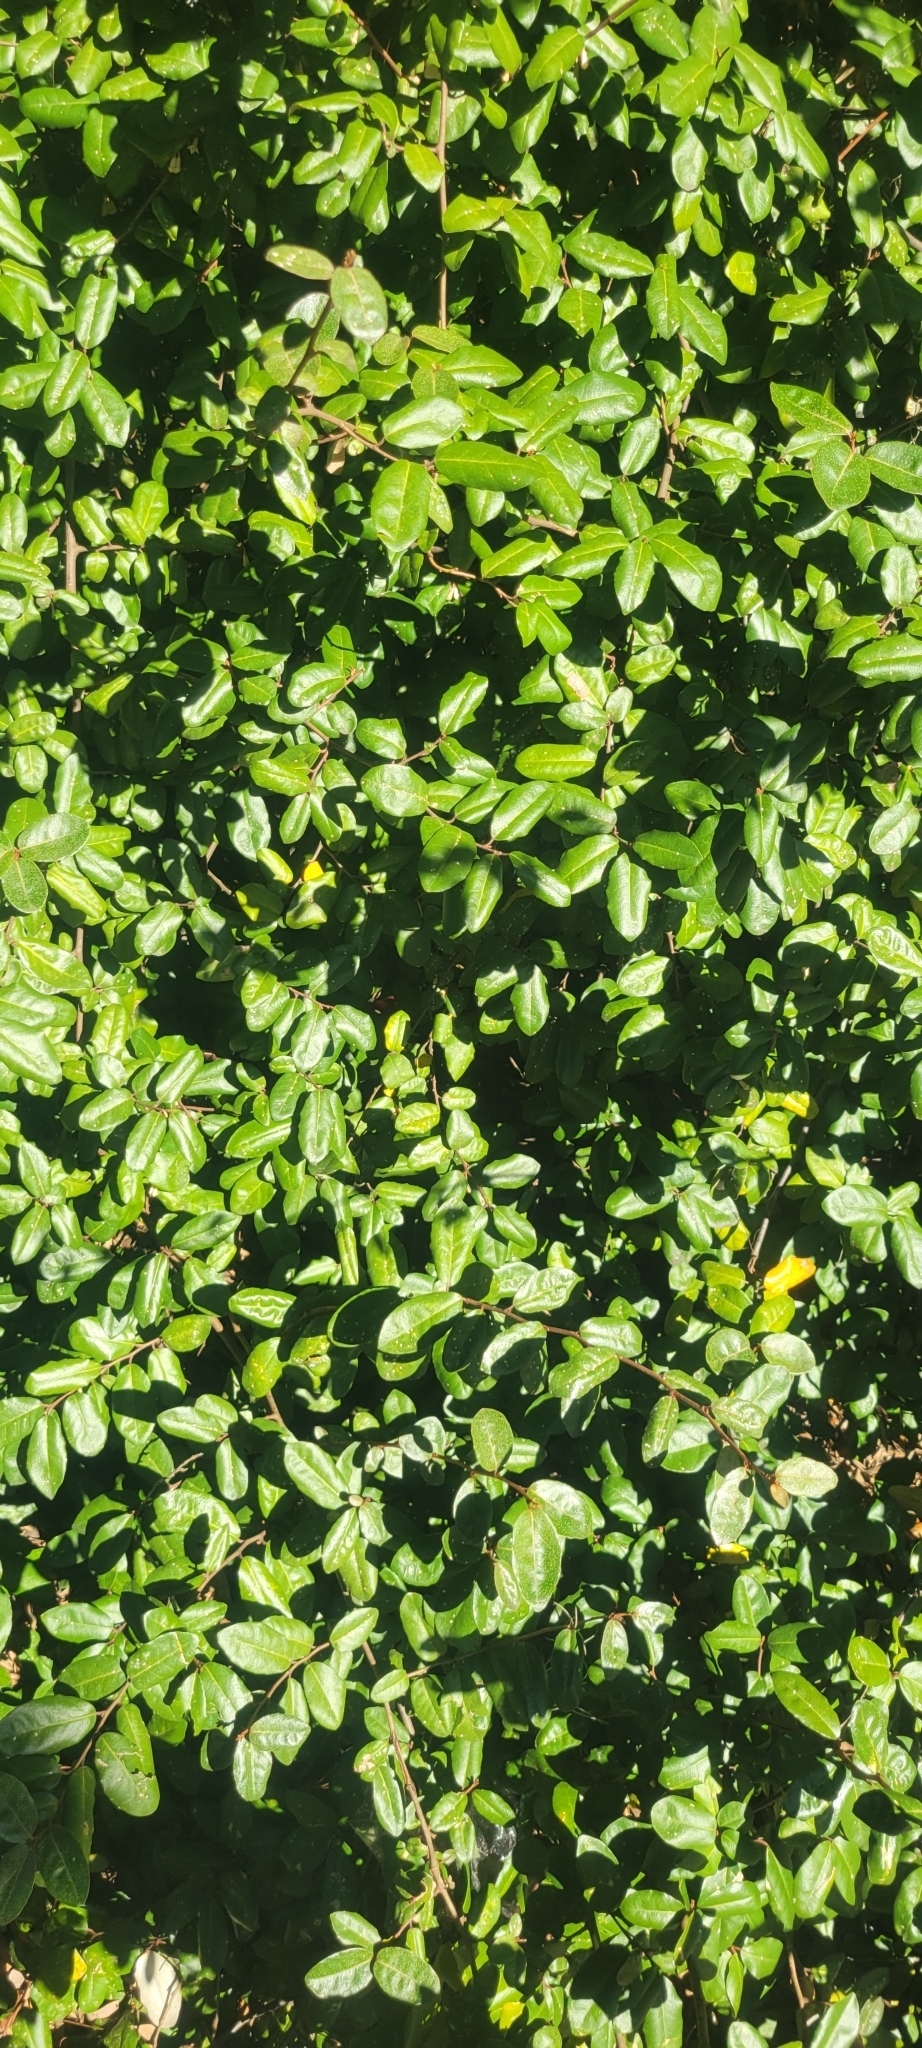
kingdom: Plantae
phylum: Tracheophyta
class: Magnoliopsida
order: Rosales
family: Elaeagnaceae
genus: Elaeagnus
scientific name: Elaeagnus pungens
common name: Spiny oleaster
